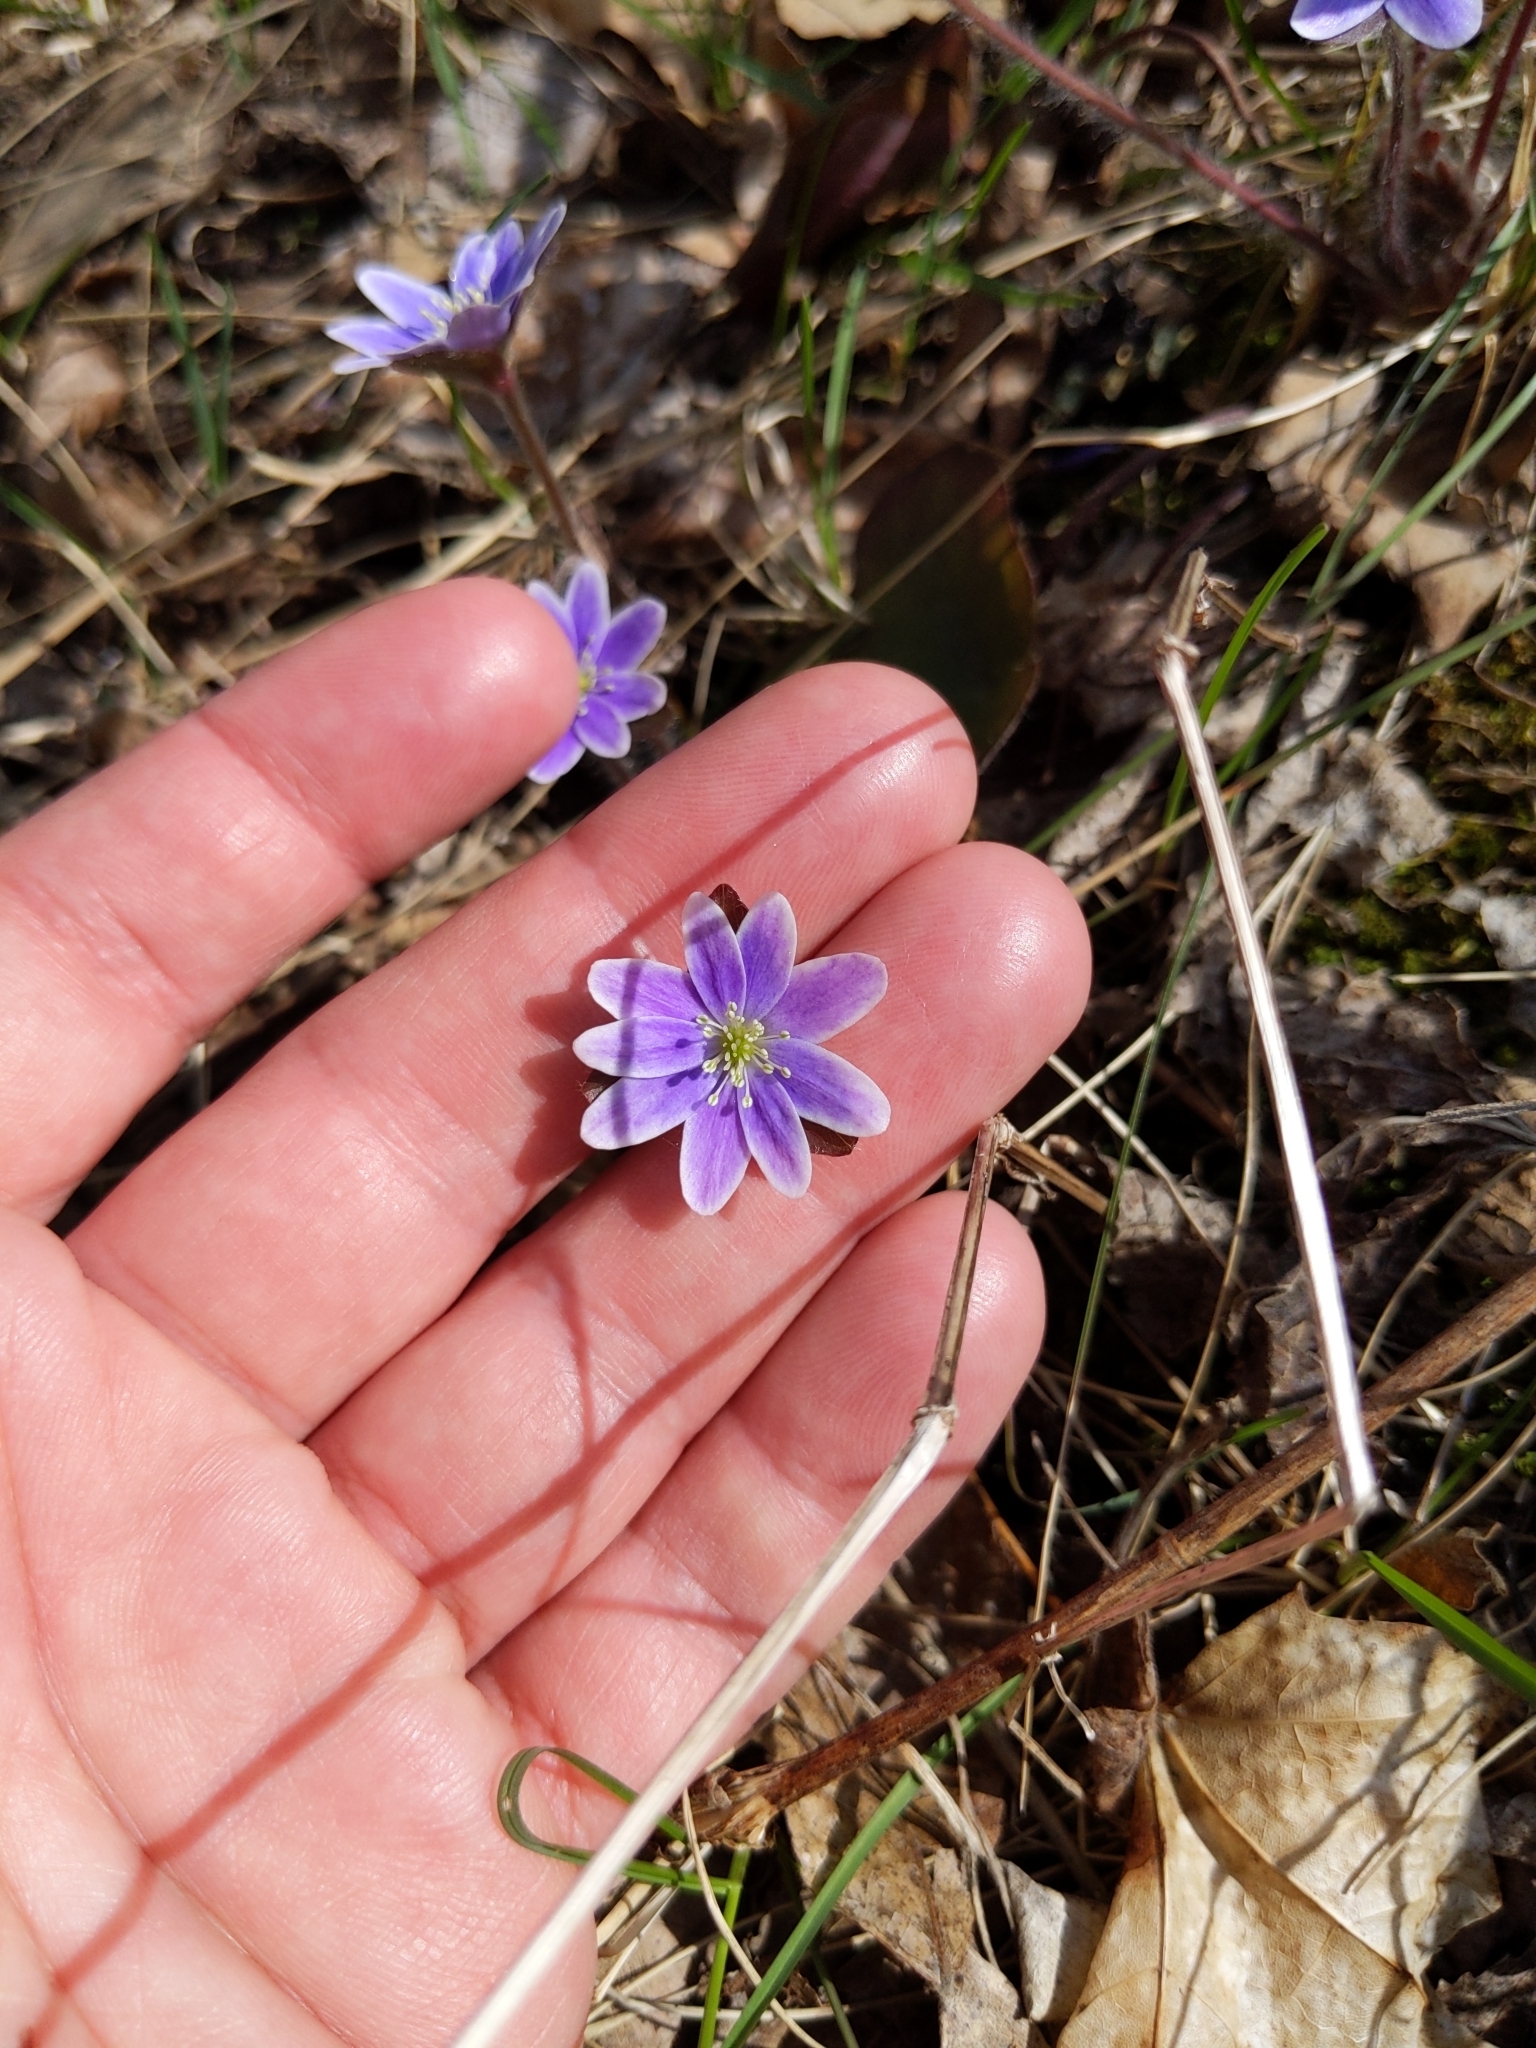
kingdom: Plantae
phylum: Tracheophyta
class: Magnoliopsida
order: Ranunculales
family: Ranunculaceae
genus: Hepatica
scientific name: Hepatica americana
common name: American hepatica
